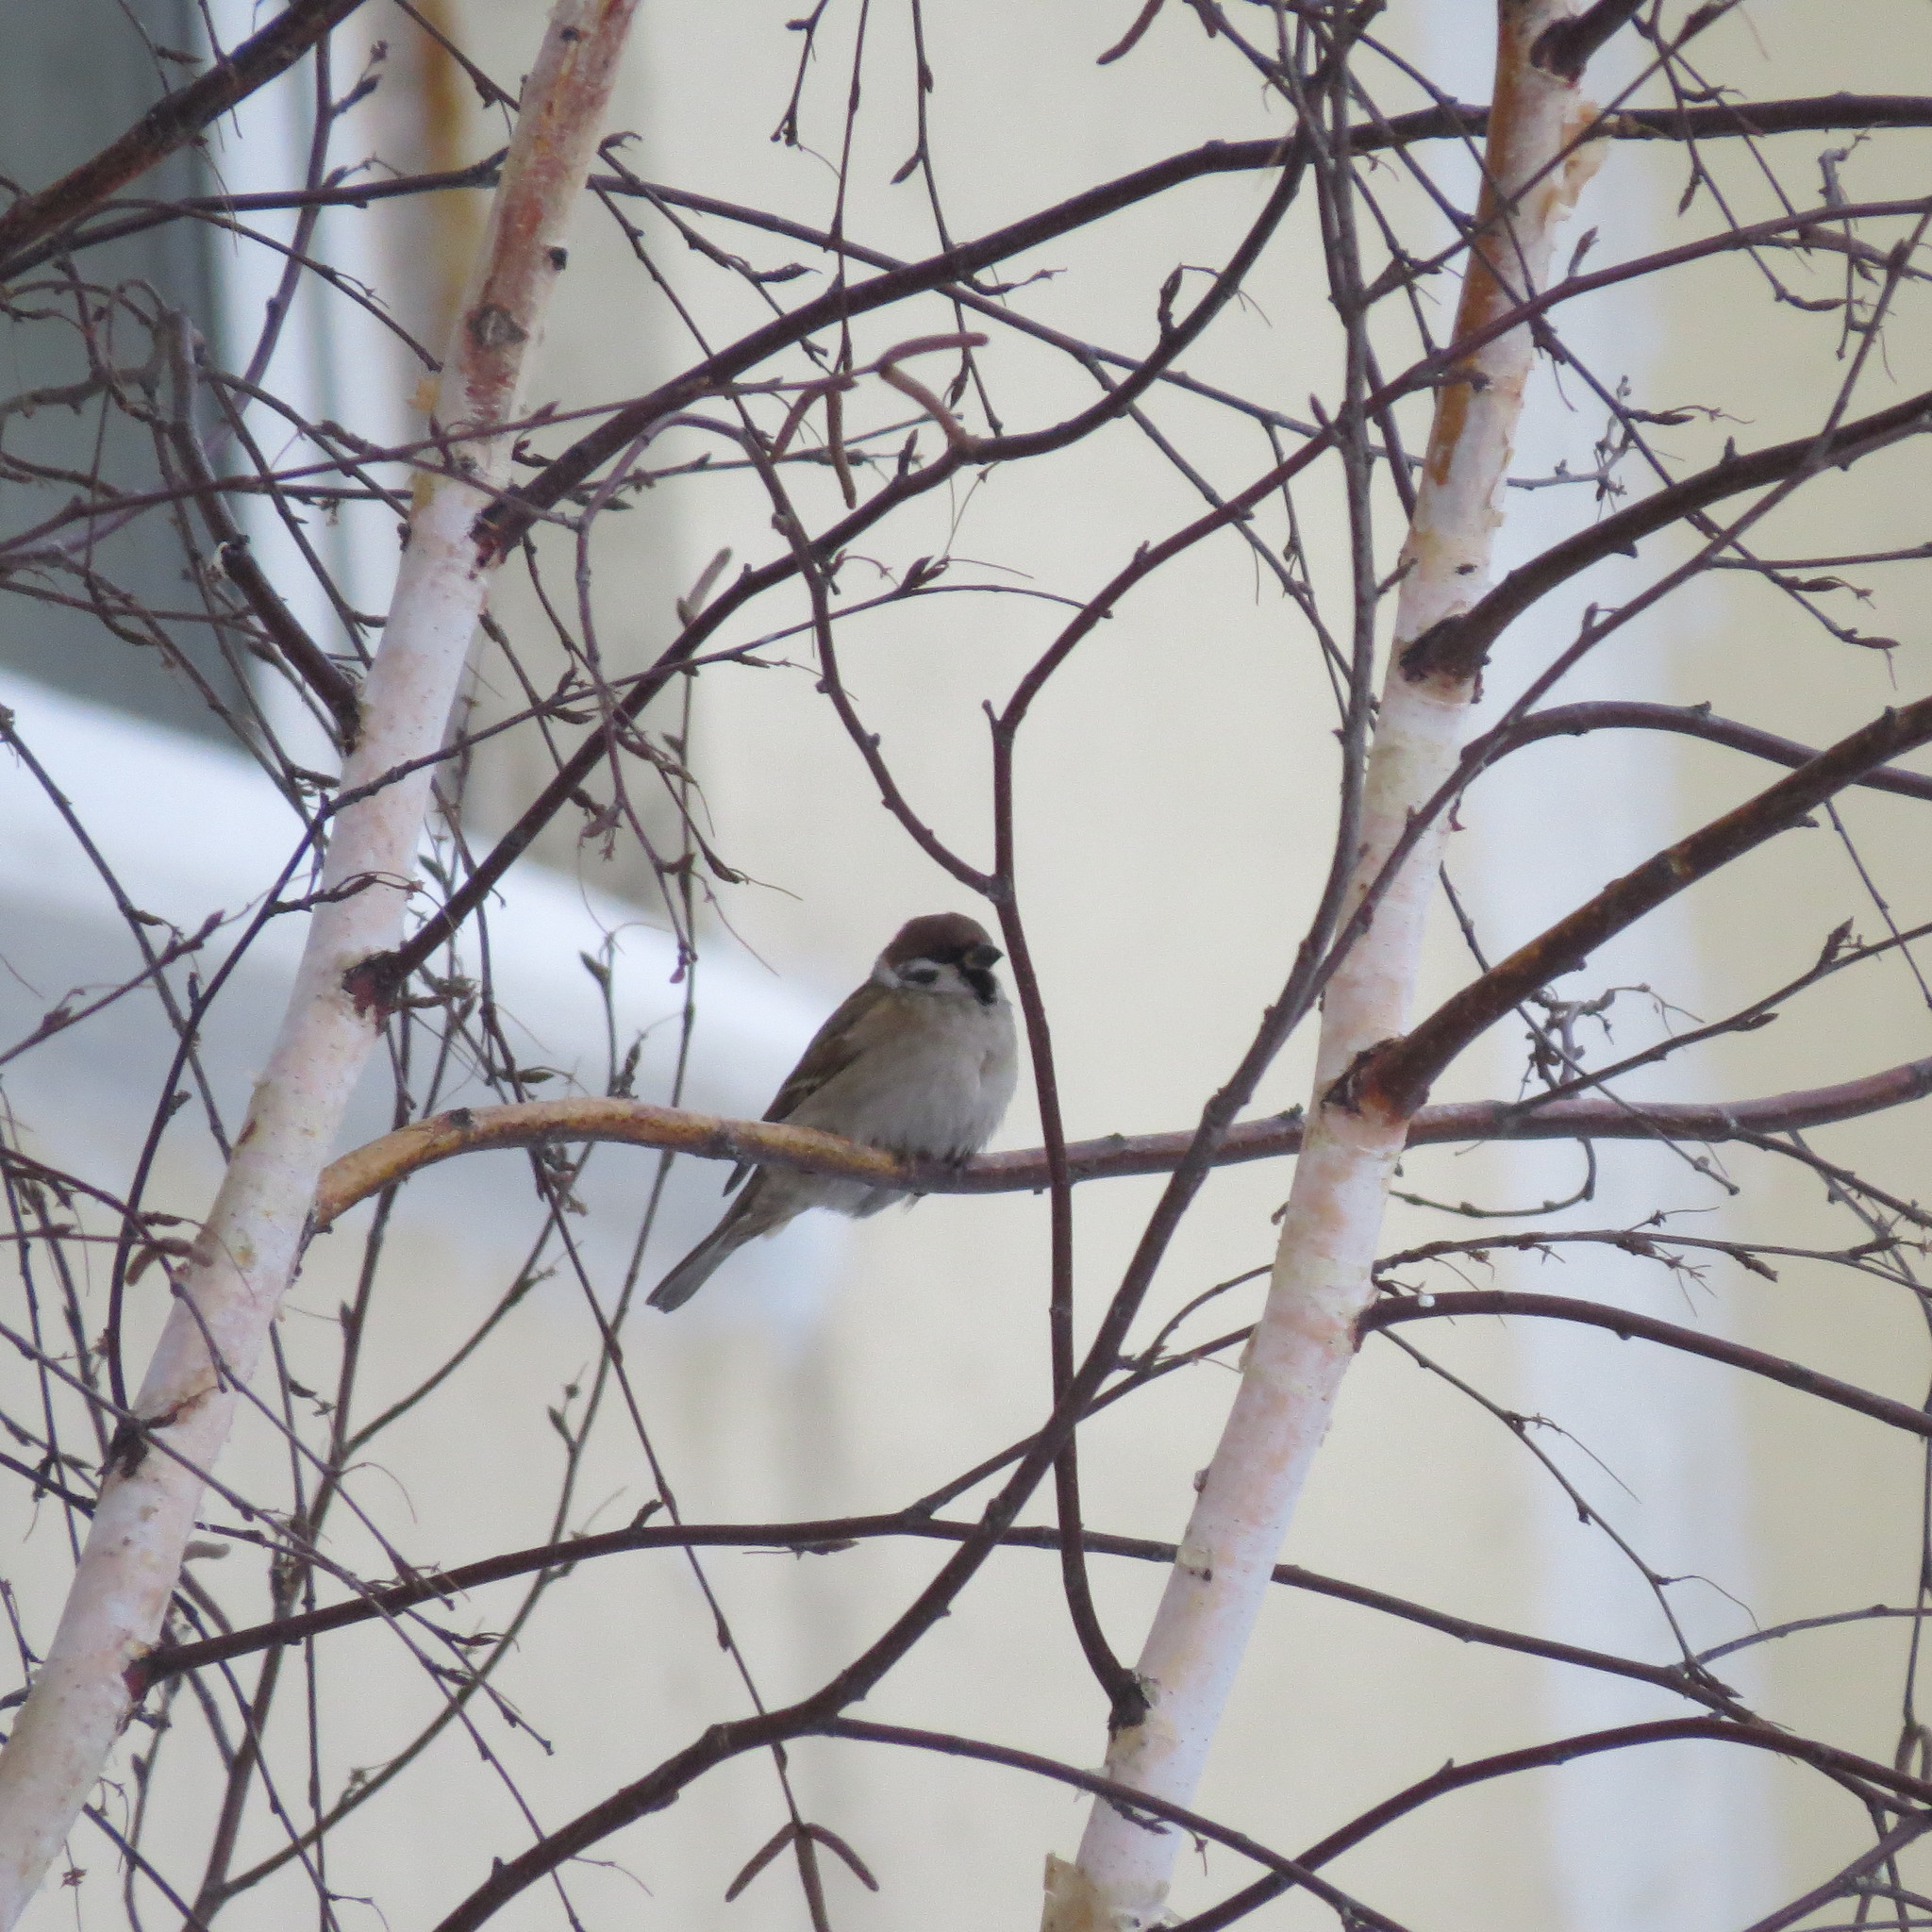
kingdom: Animalia
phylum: Chordata
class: Aves
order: Passeriformes
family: Passeridae
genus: Passer
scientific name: Passer montanus
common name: Eurasian tree sparrow
